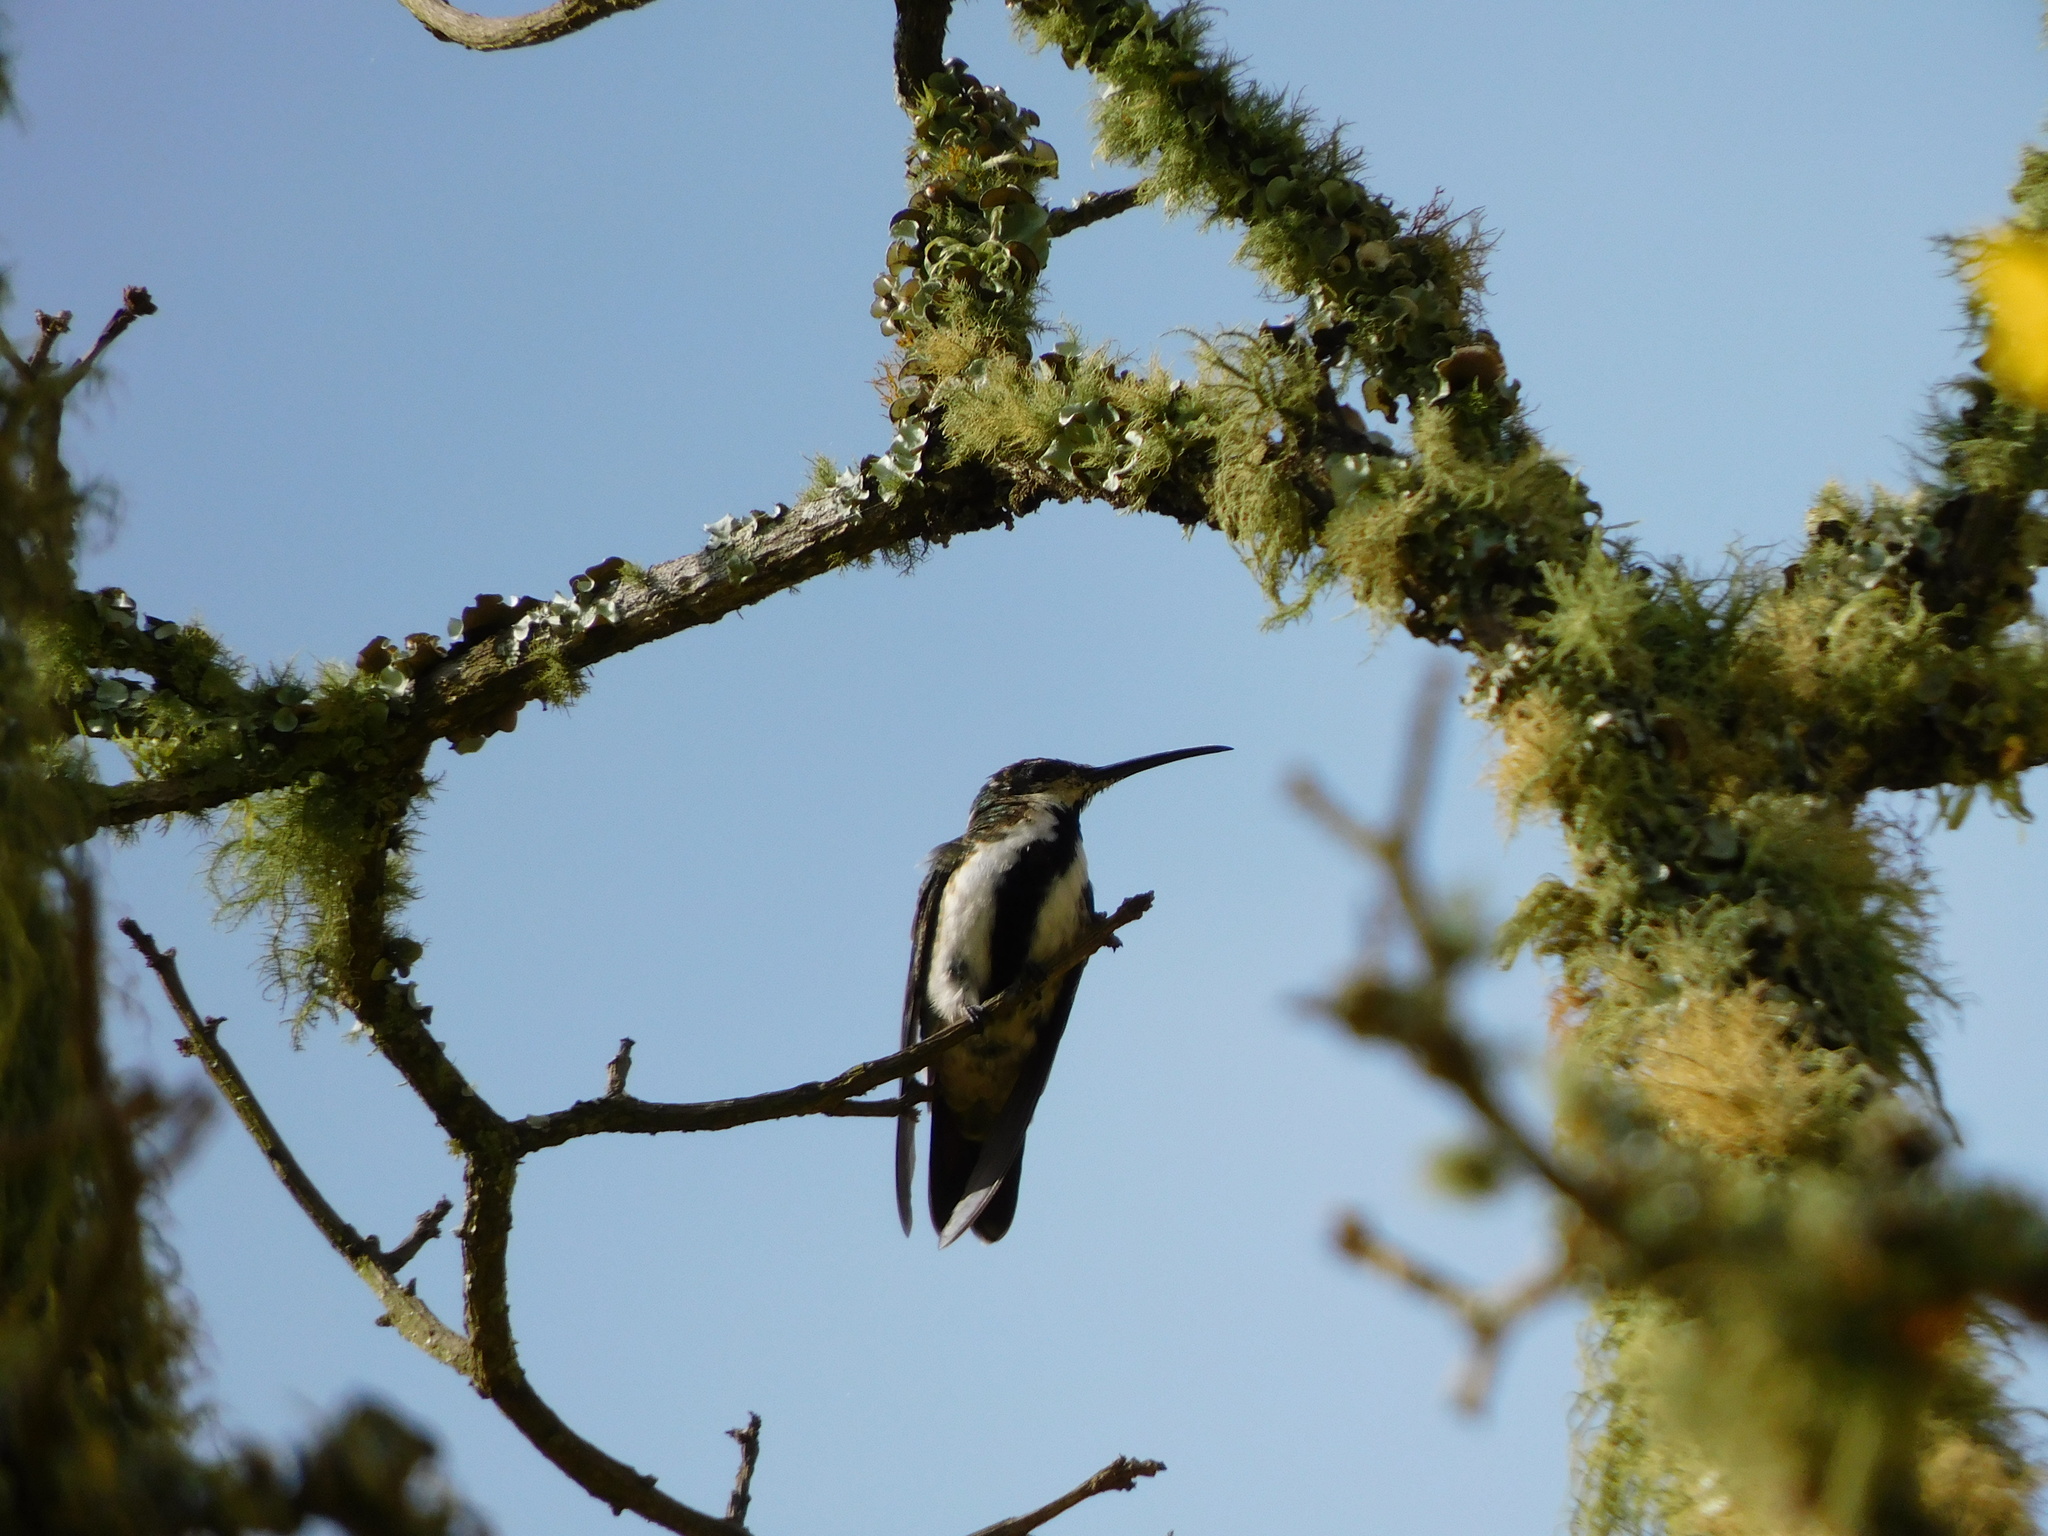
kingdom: Animalia
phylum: Chordata
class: Aves
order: Apodiformes
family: Trochilidae
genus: Anthracothorax
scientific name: Anthracothorax nigricollis
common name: Black-throated mango
